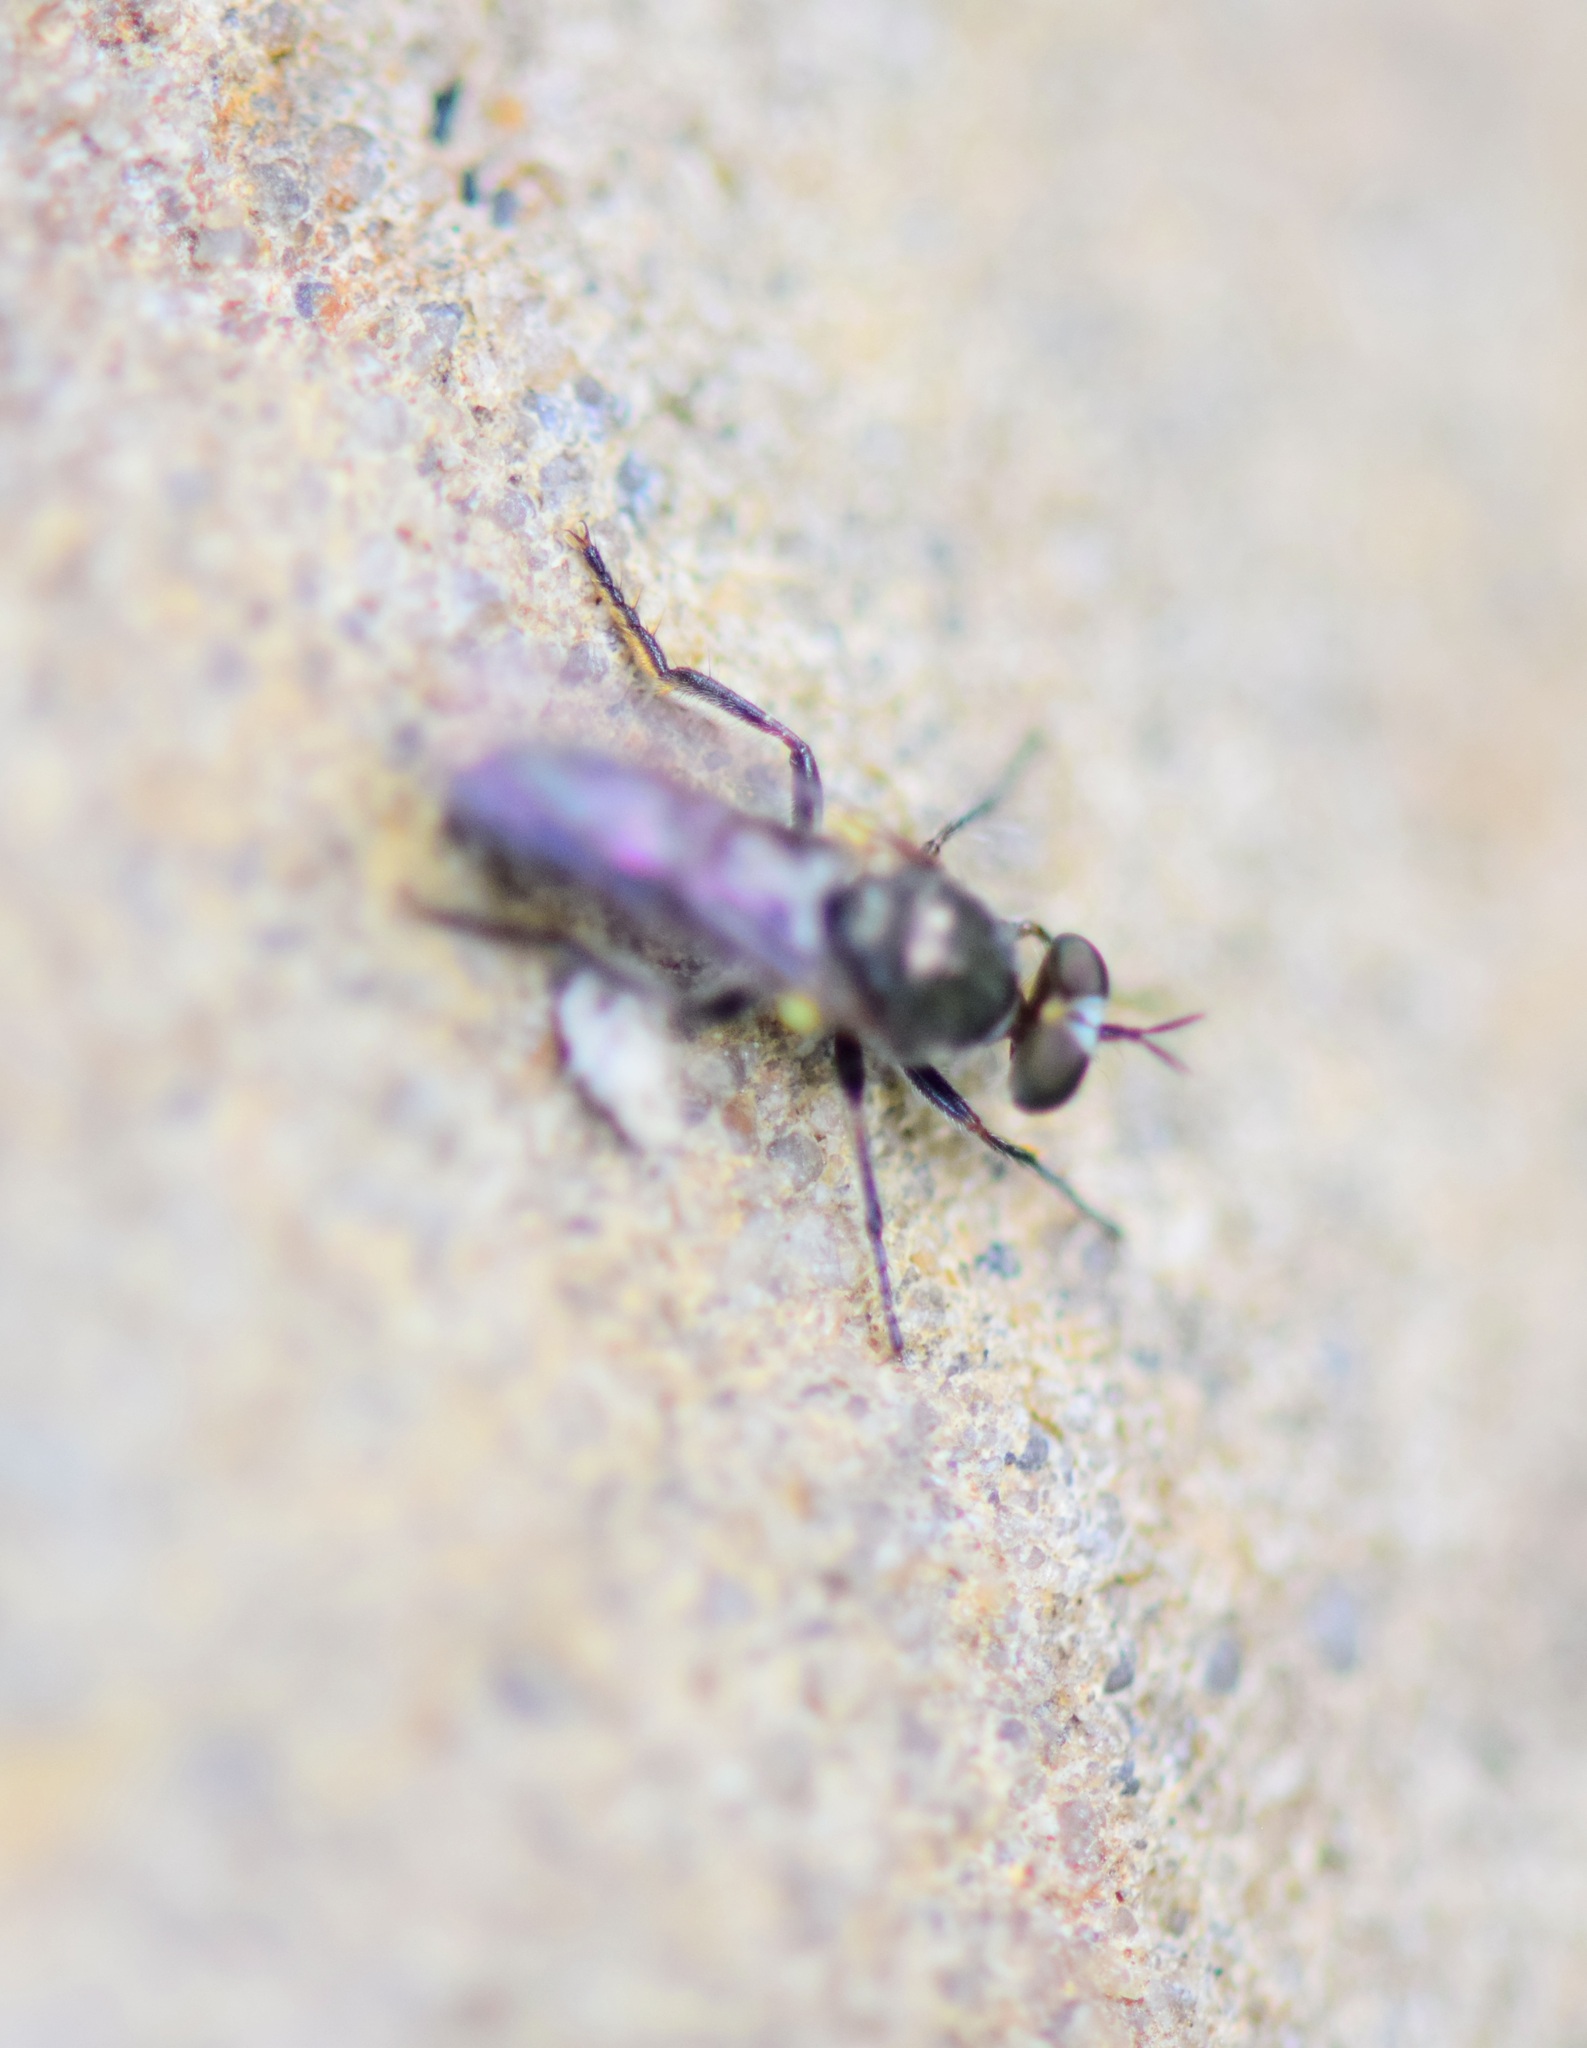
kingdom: Animalia
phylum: Arthropoda
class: Insecta
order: Diptera
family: Asilidae
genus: Atomosia
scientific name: Atomosia puella
